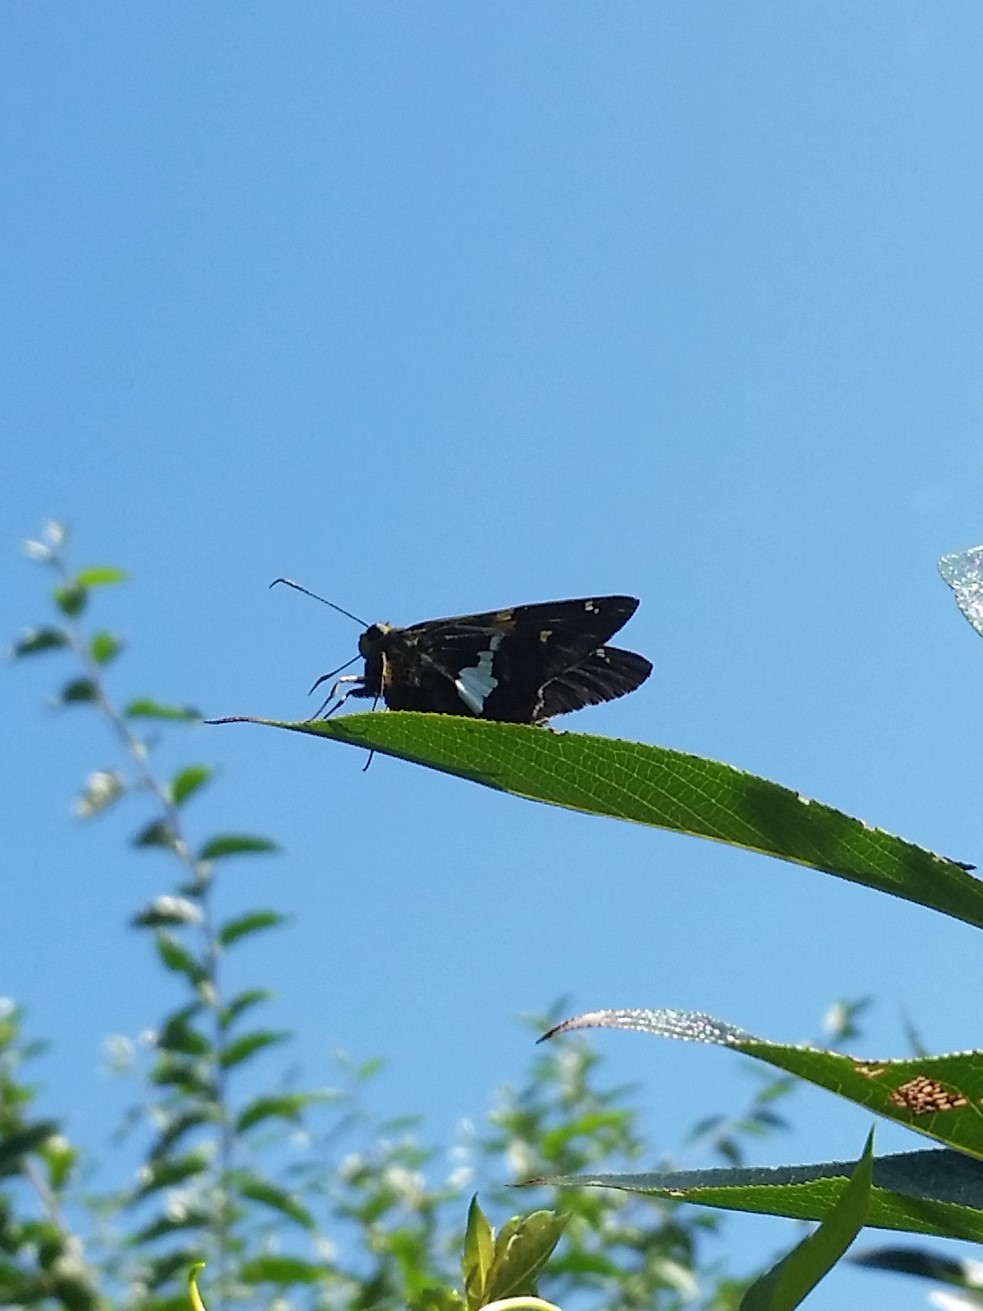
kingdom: Animalia
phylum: Arthropoda
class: Insecta
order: Lepidoptera
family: Hesperiidae
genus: Epargyreus
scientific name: Epargyreus clarus
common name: Silver-spotted skipper
